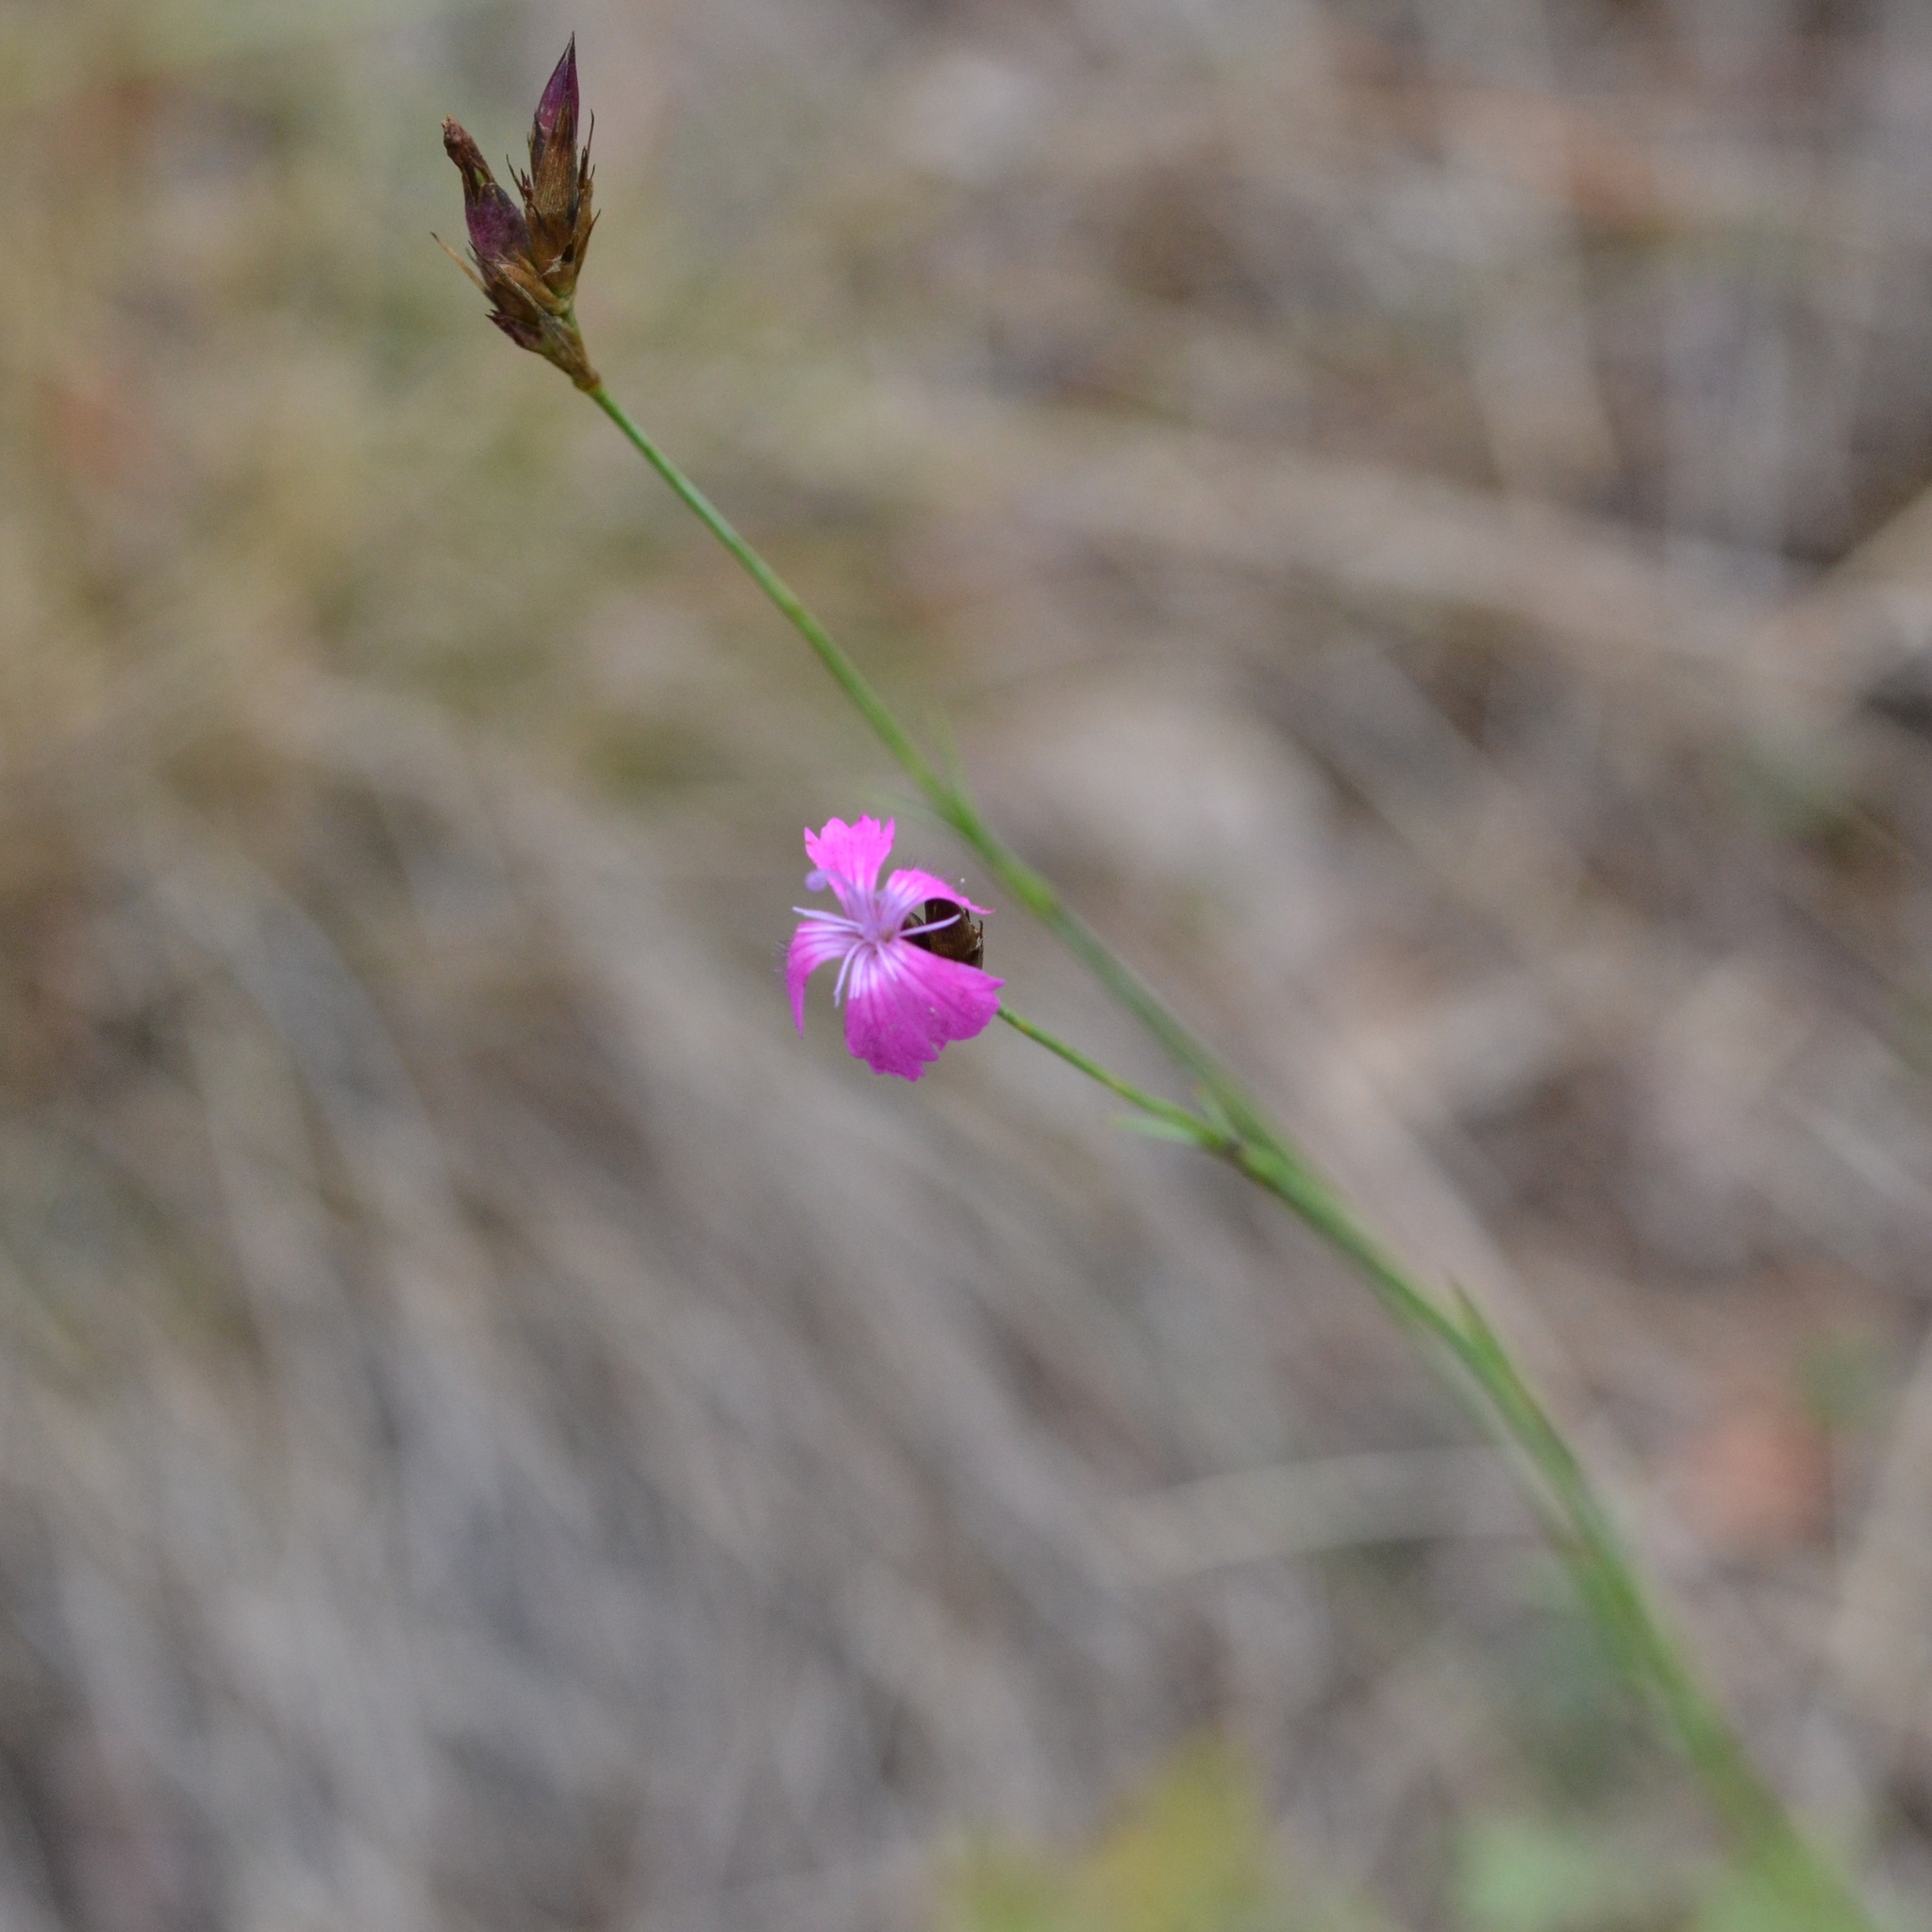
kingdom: Plantae
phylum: Tracheophyta
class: Magnoliopsida
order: Caryophyllales
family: Caryophyllaceae
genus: Dianthus
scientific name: Dianthus carthusianorum
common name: Carthusian pink
